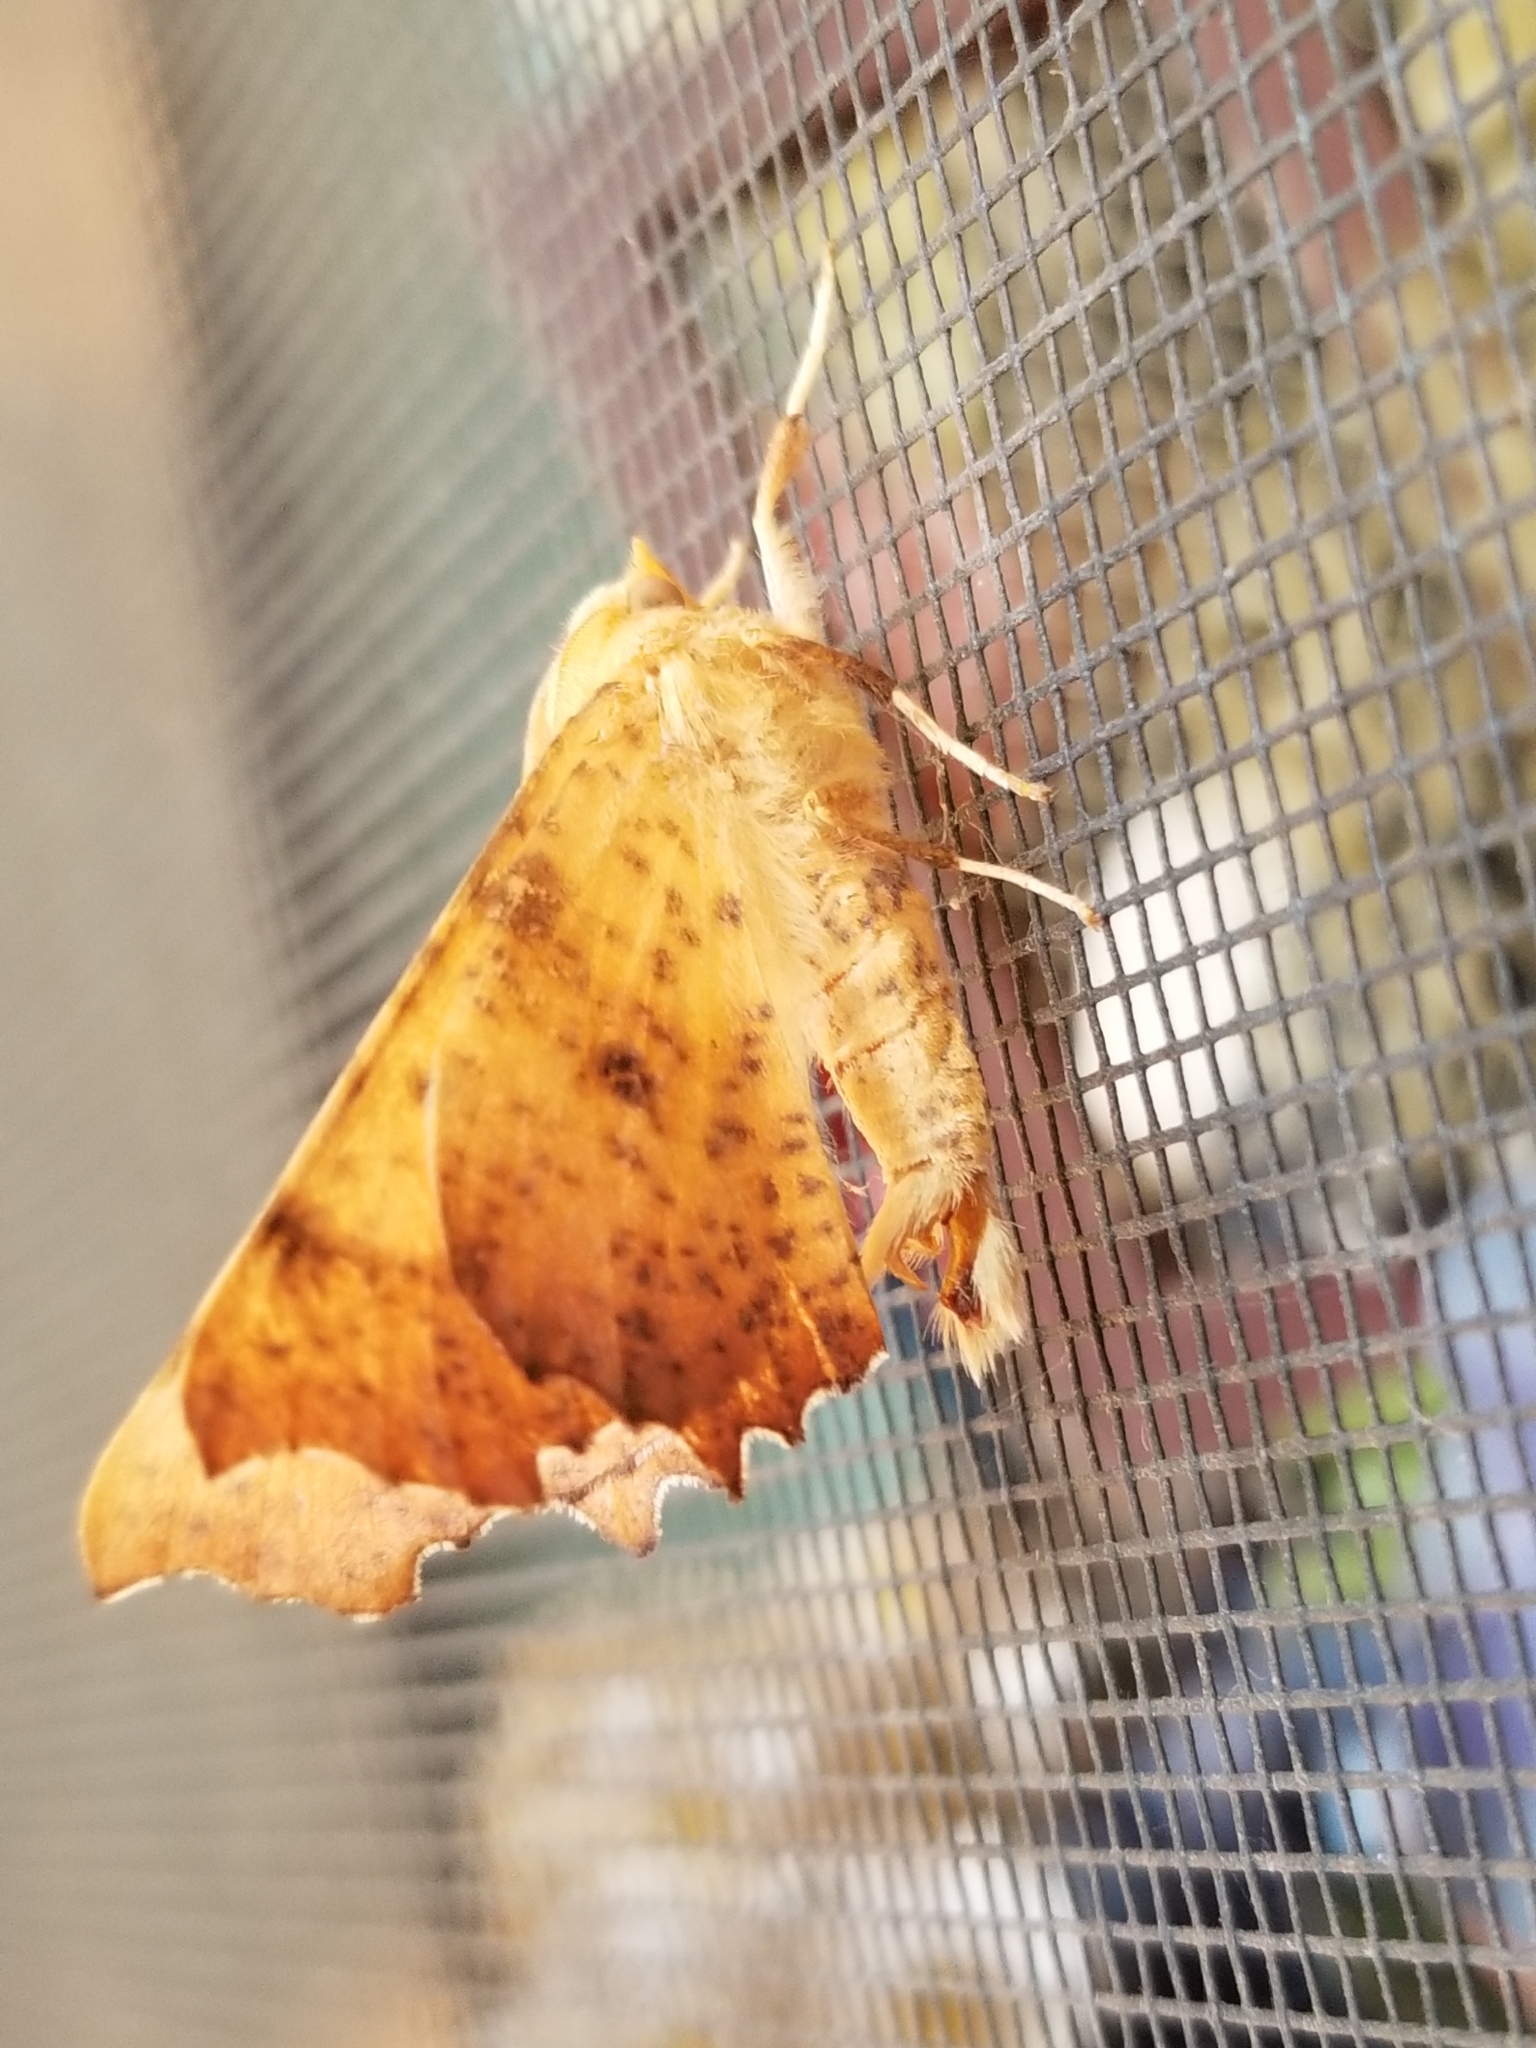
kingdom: Animalia
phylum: Arthropoda
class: Insecta
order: Lepidoptera
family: Geometridae
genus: Ennomos
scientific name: Ennomos magnaria
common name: Maple spanworm
